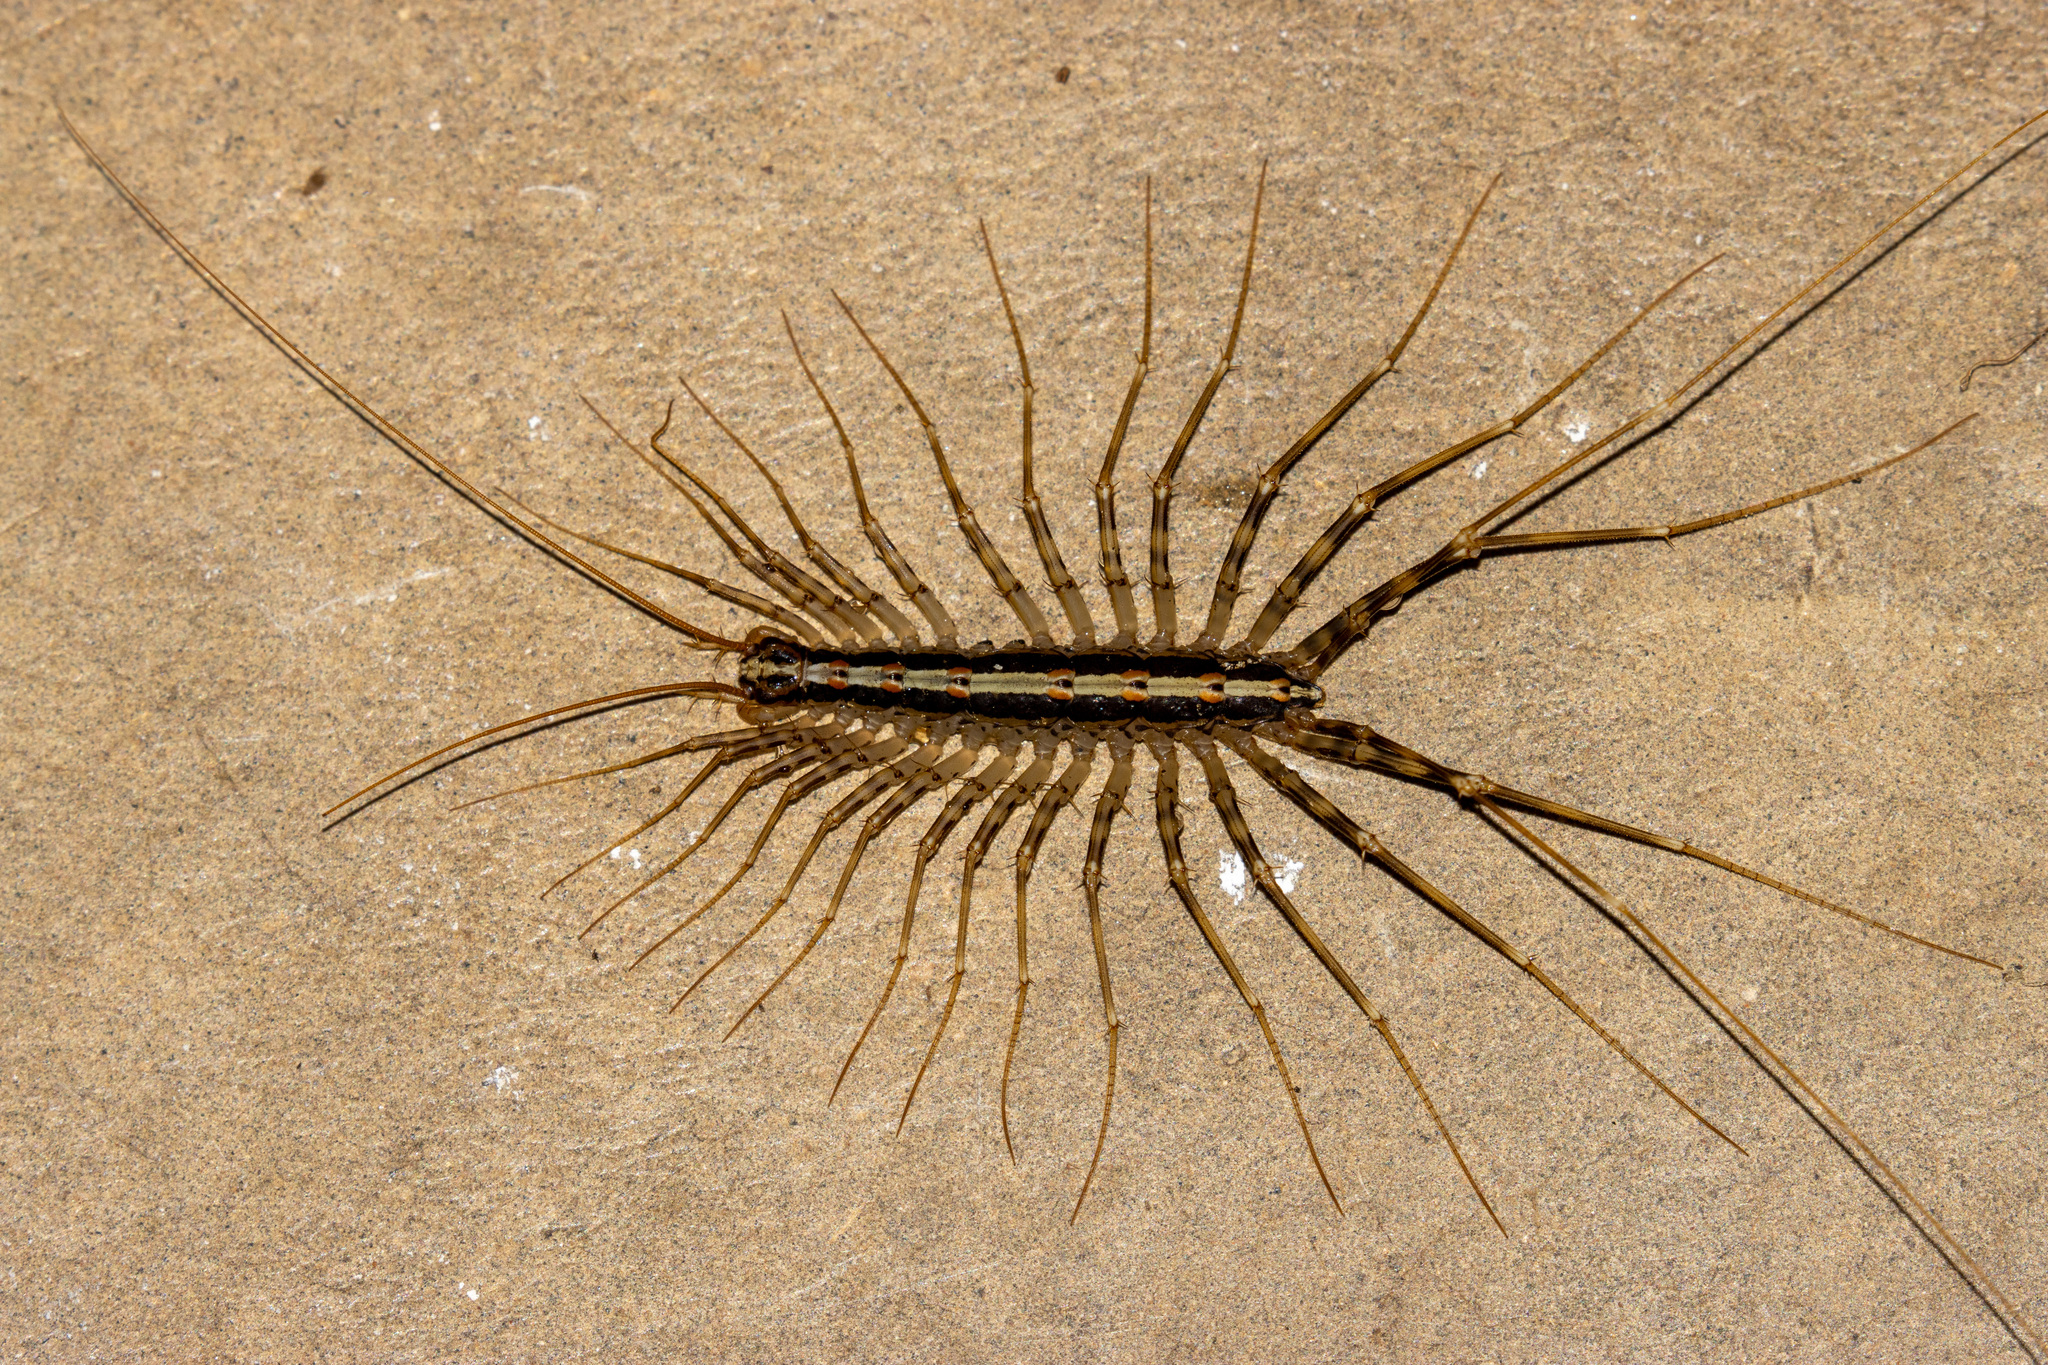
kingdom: Animalia
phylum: Arthropoda
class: Chilopoda
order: Scutigeromorpha
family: Pselliodidae
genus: Sphendononema
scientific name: Sphendononema guildingii
